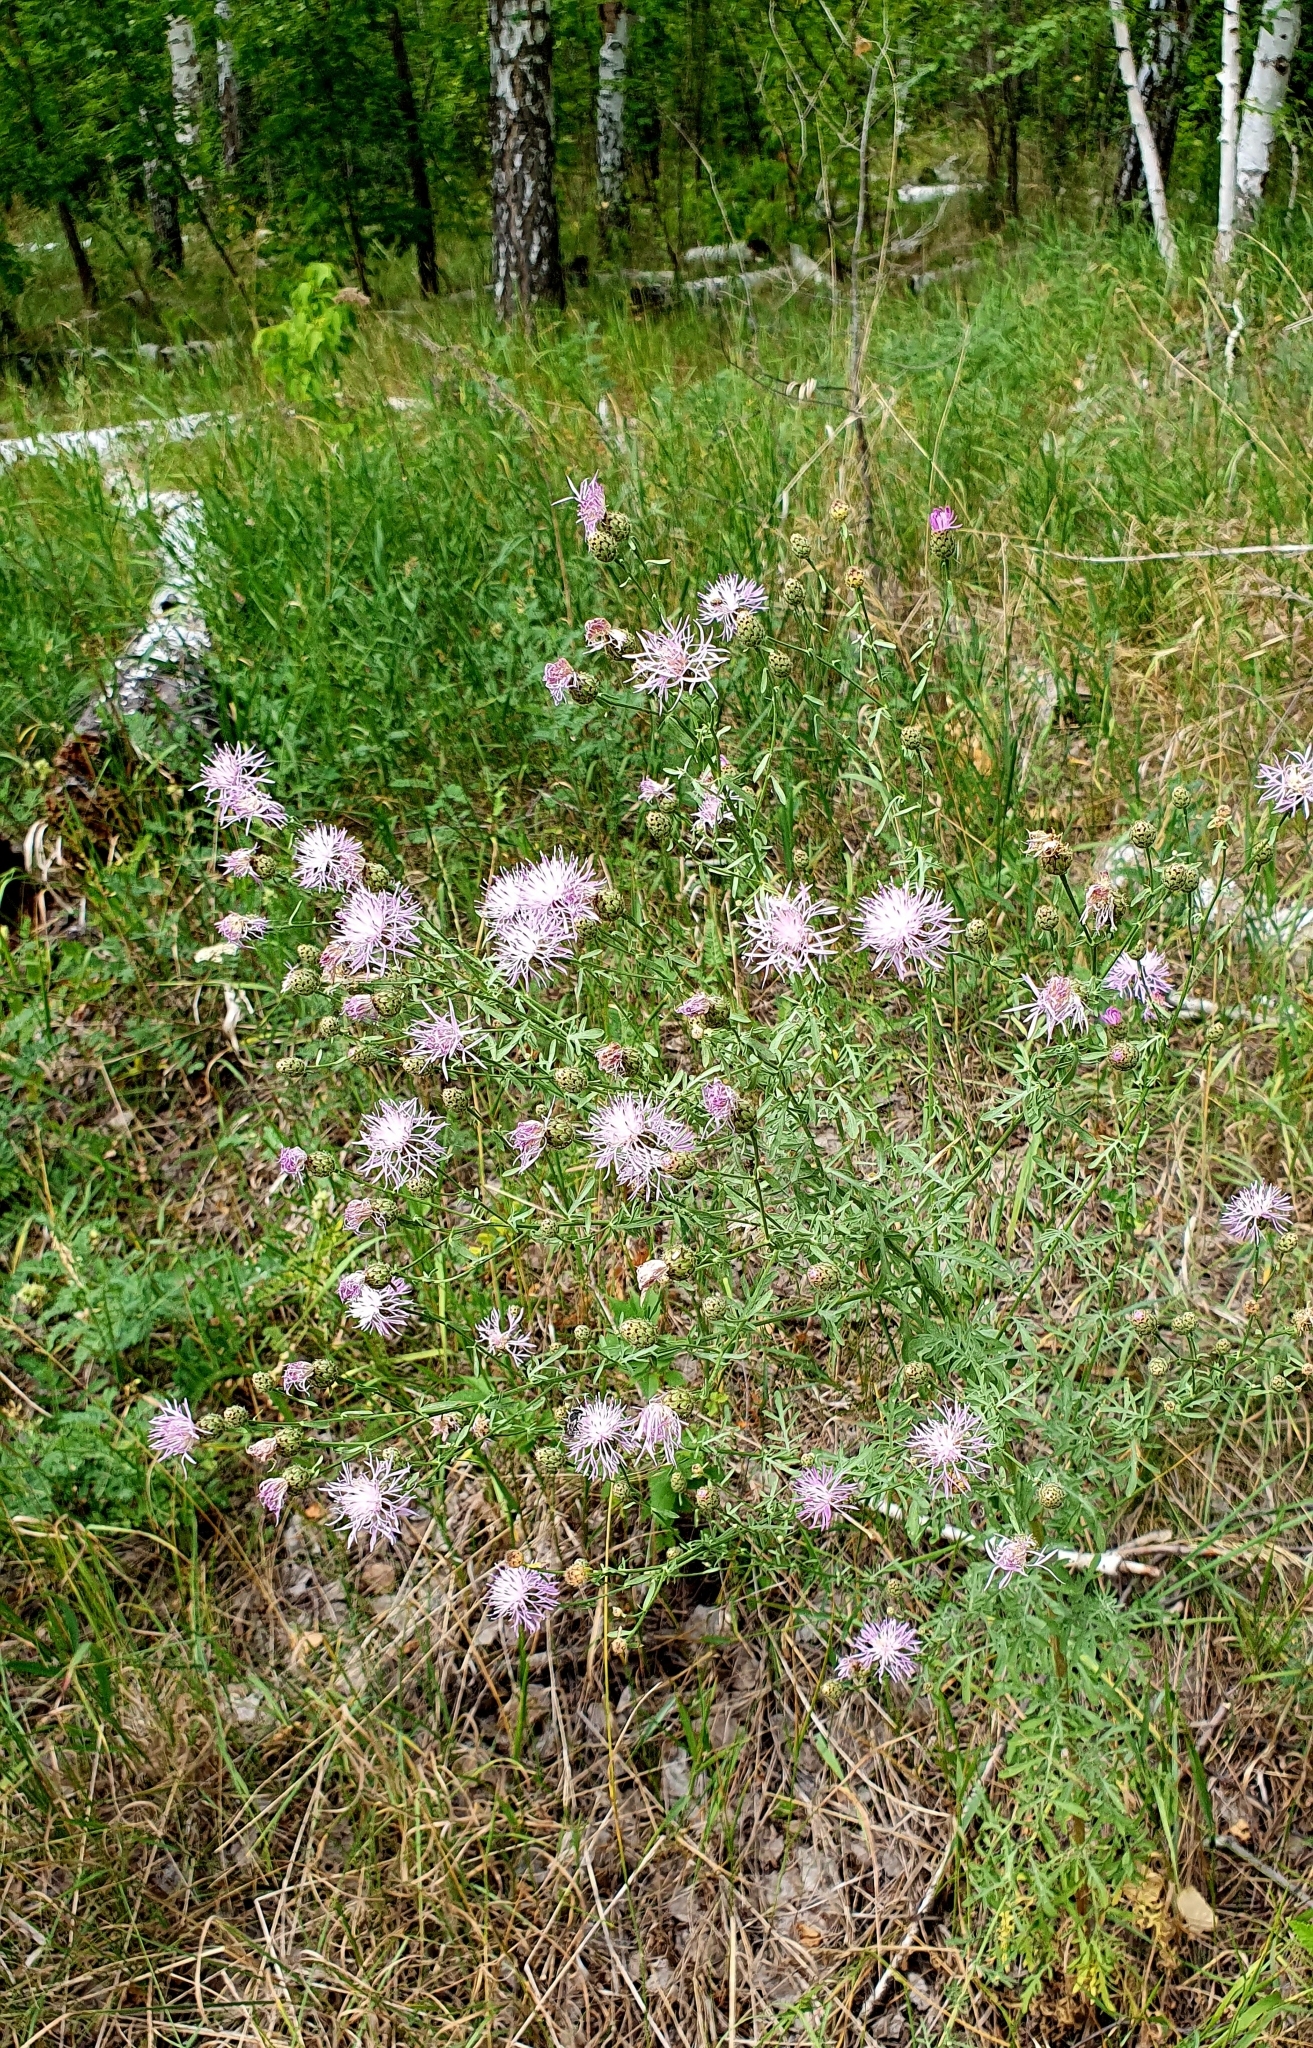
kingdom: Plantae
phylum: Tracheophyta
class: Magnoliopsida
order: Asterales
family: Asteraceae
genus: Centaurea
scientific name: Centaurea stoebe
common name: Spotted knapweed
